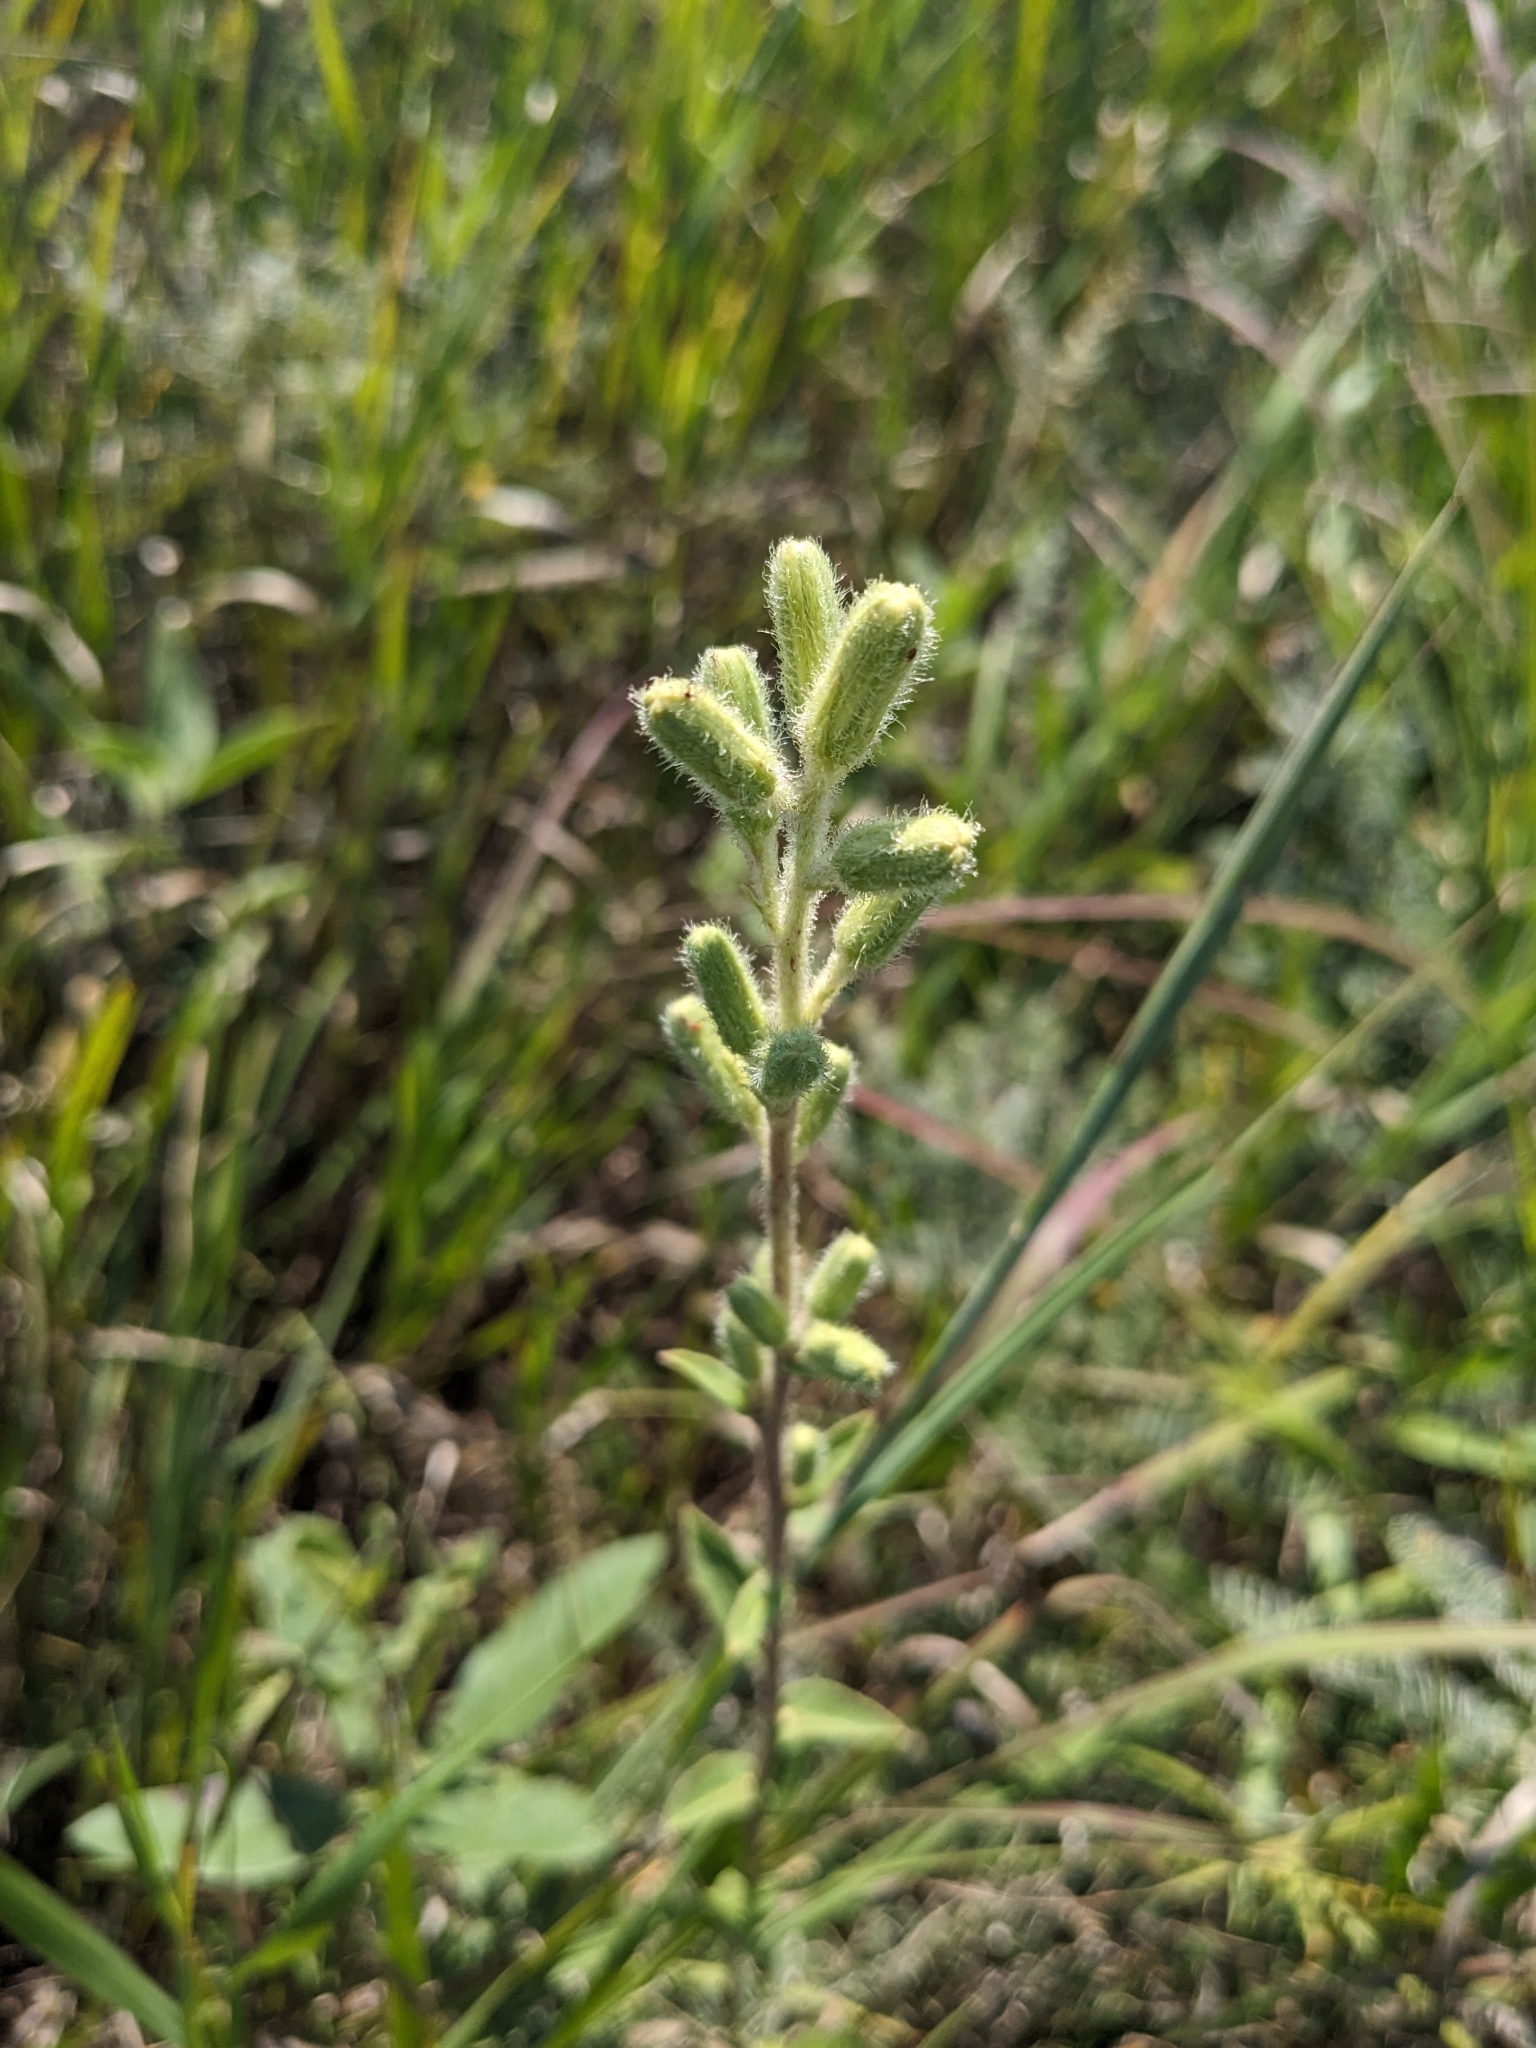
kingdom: Plantae
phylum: Tracheophyta
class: Magnoliopsida
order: Asterales
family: Asteraceae
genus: Nabalus
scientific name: Nabalus asper
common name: Rough rattlesnakeroot
